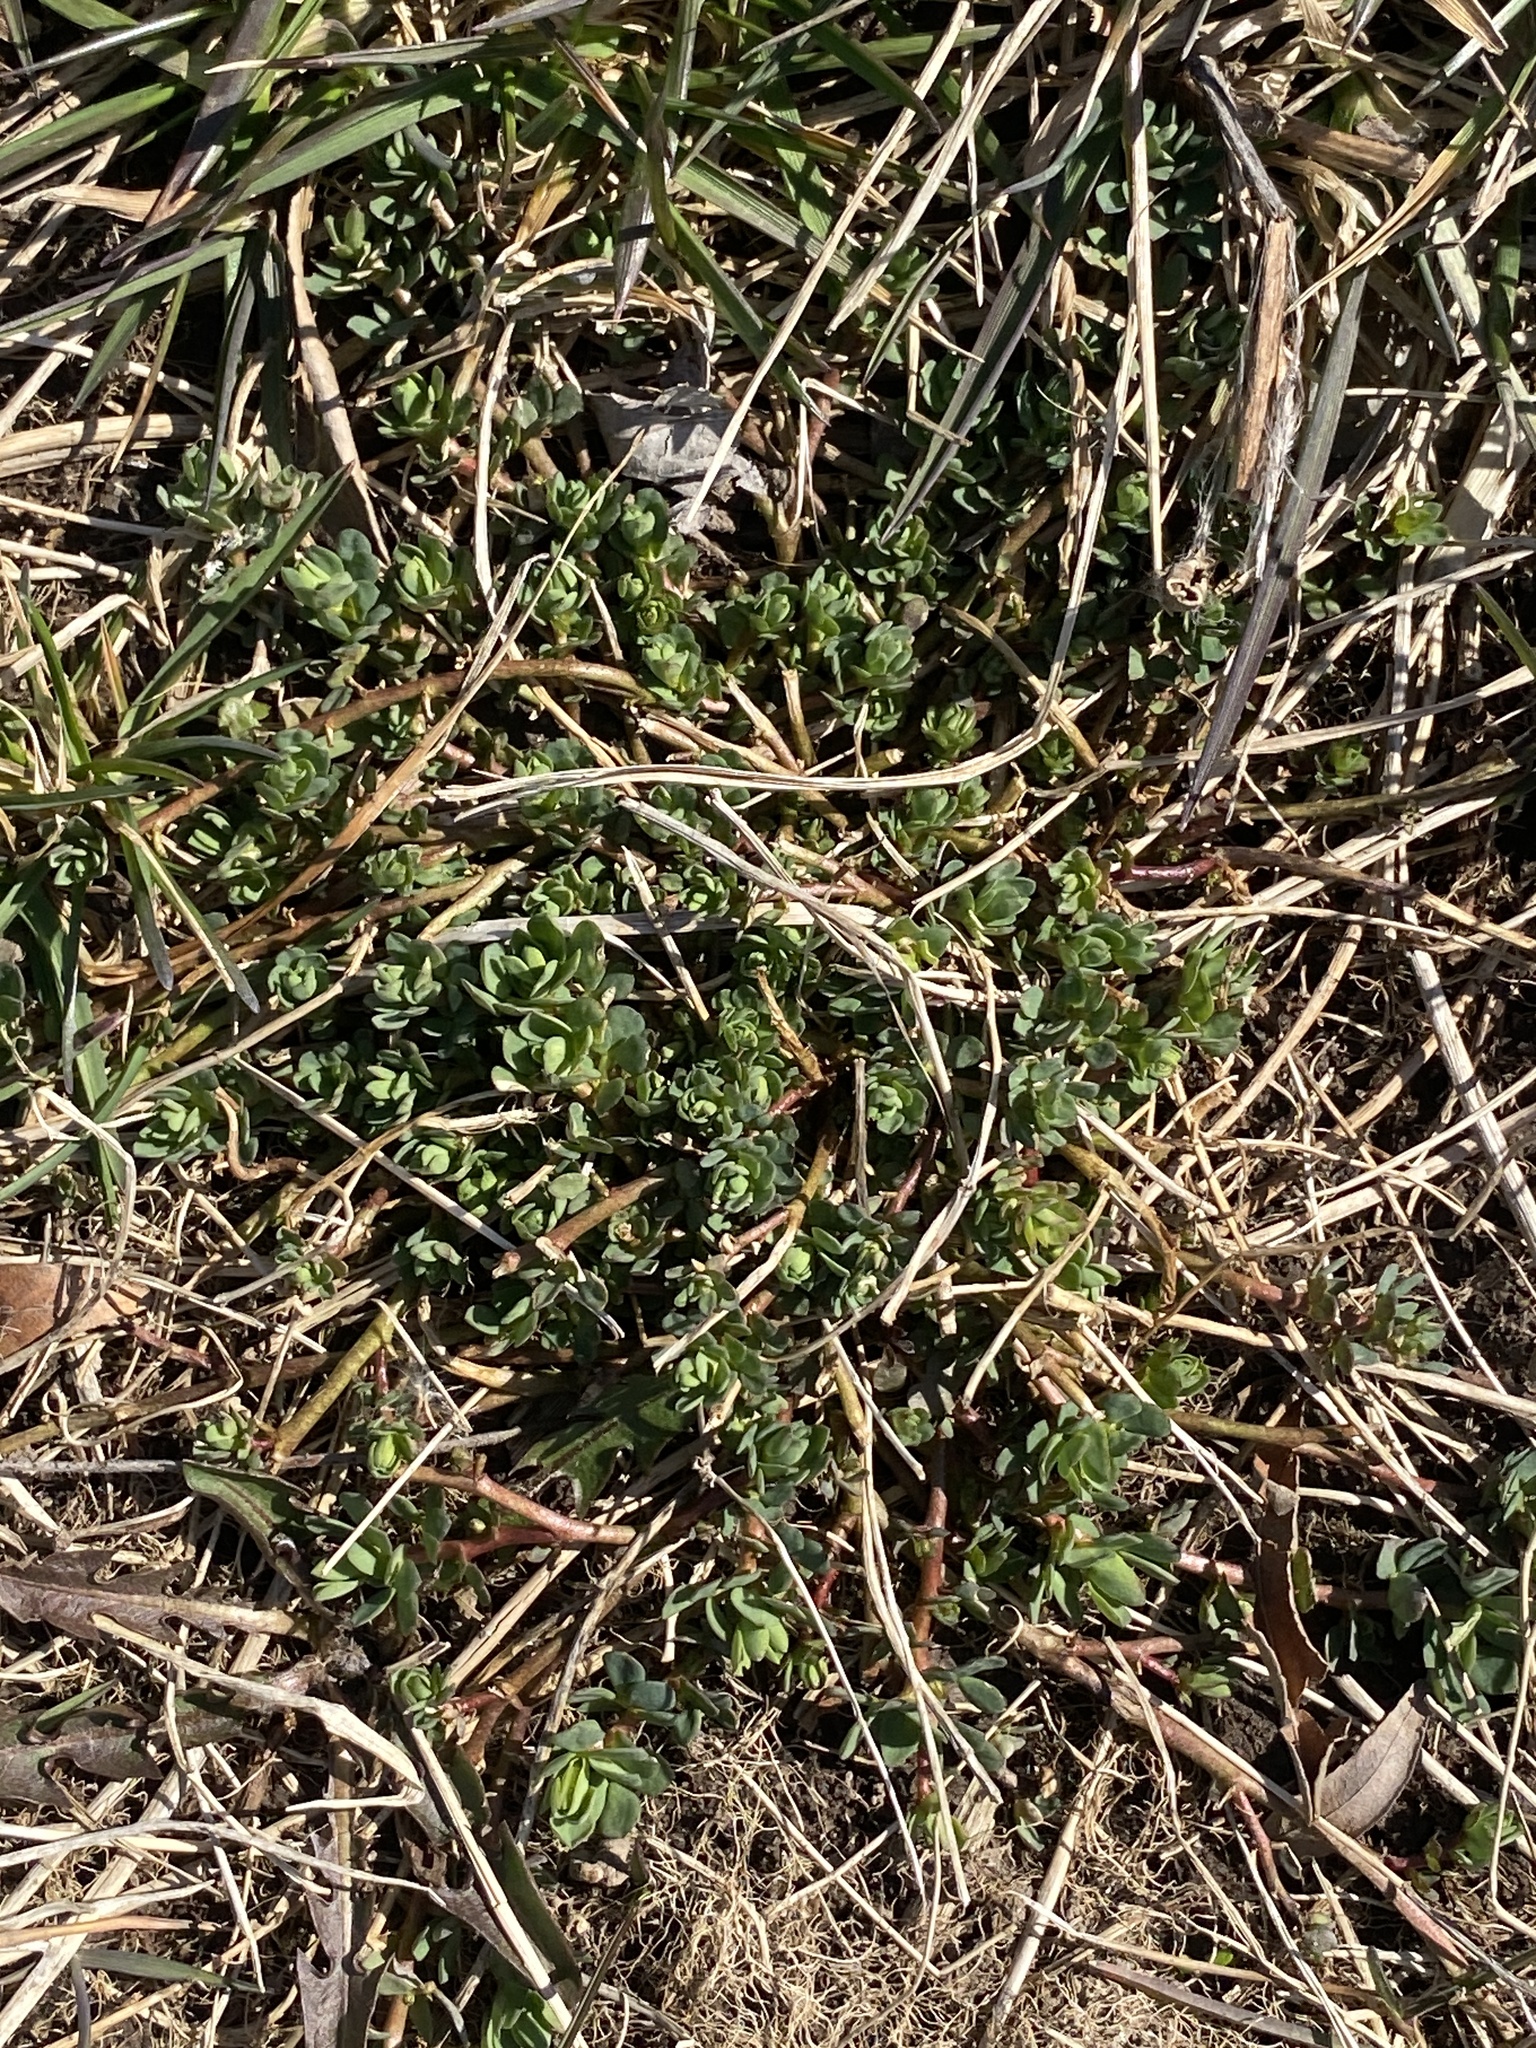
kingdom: Plantae
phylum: Tracheophyta
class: Magnoliopsida
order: Fabales
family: Fabaceae
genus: Lotus
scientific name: Lotus corniculatus
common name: Common bird's-foot-trefoil
